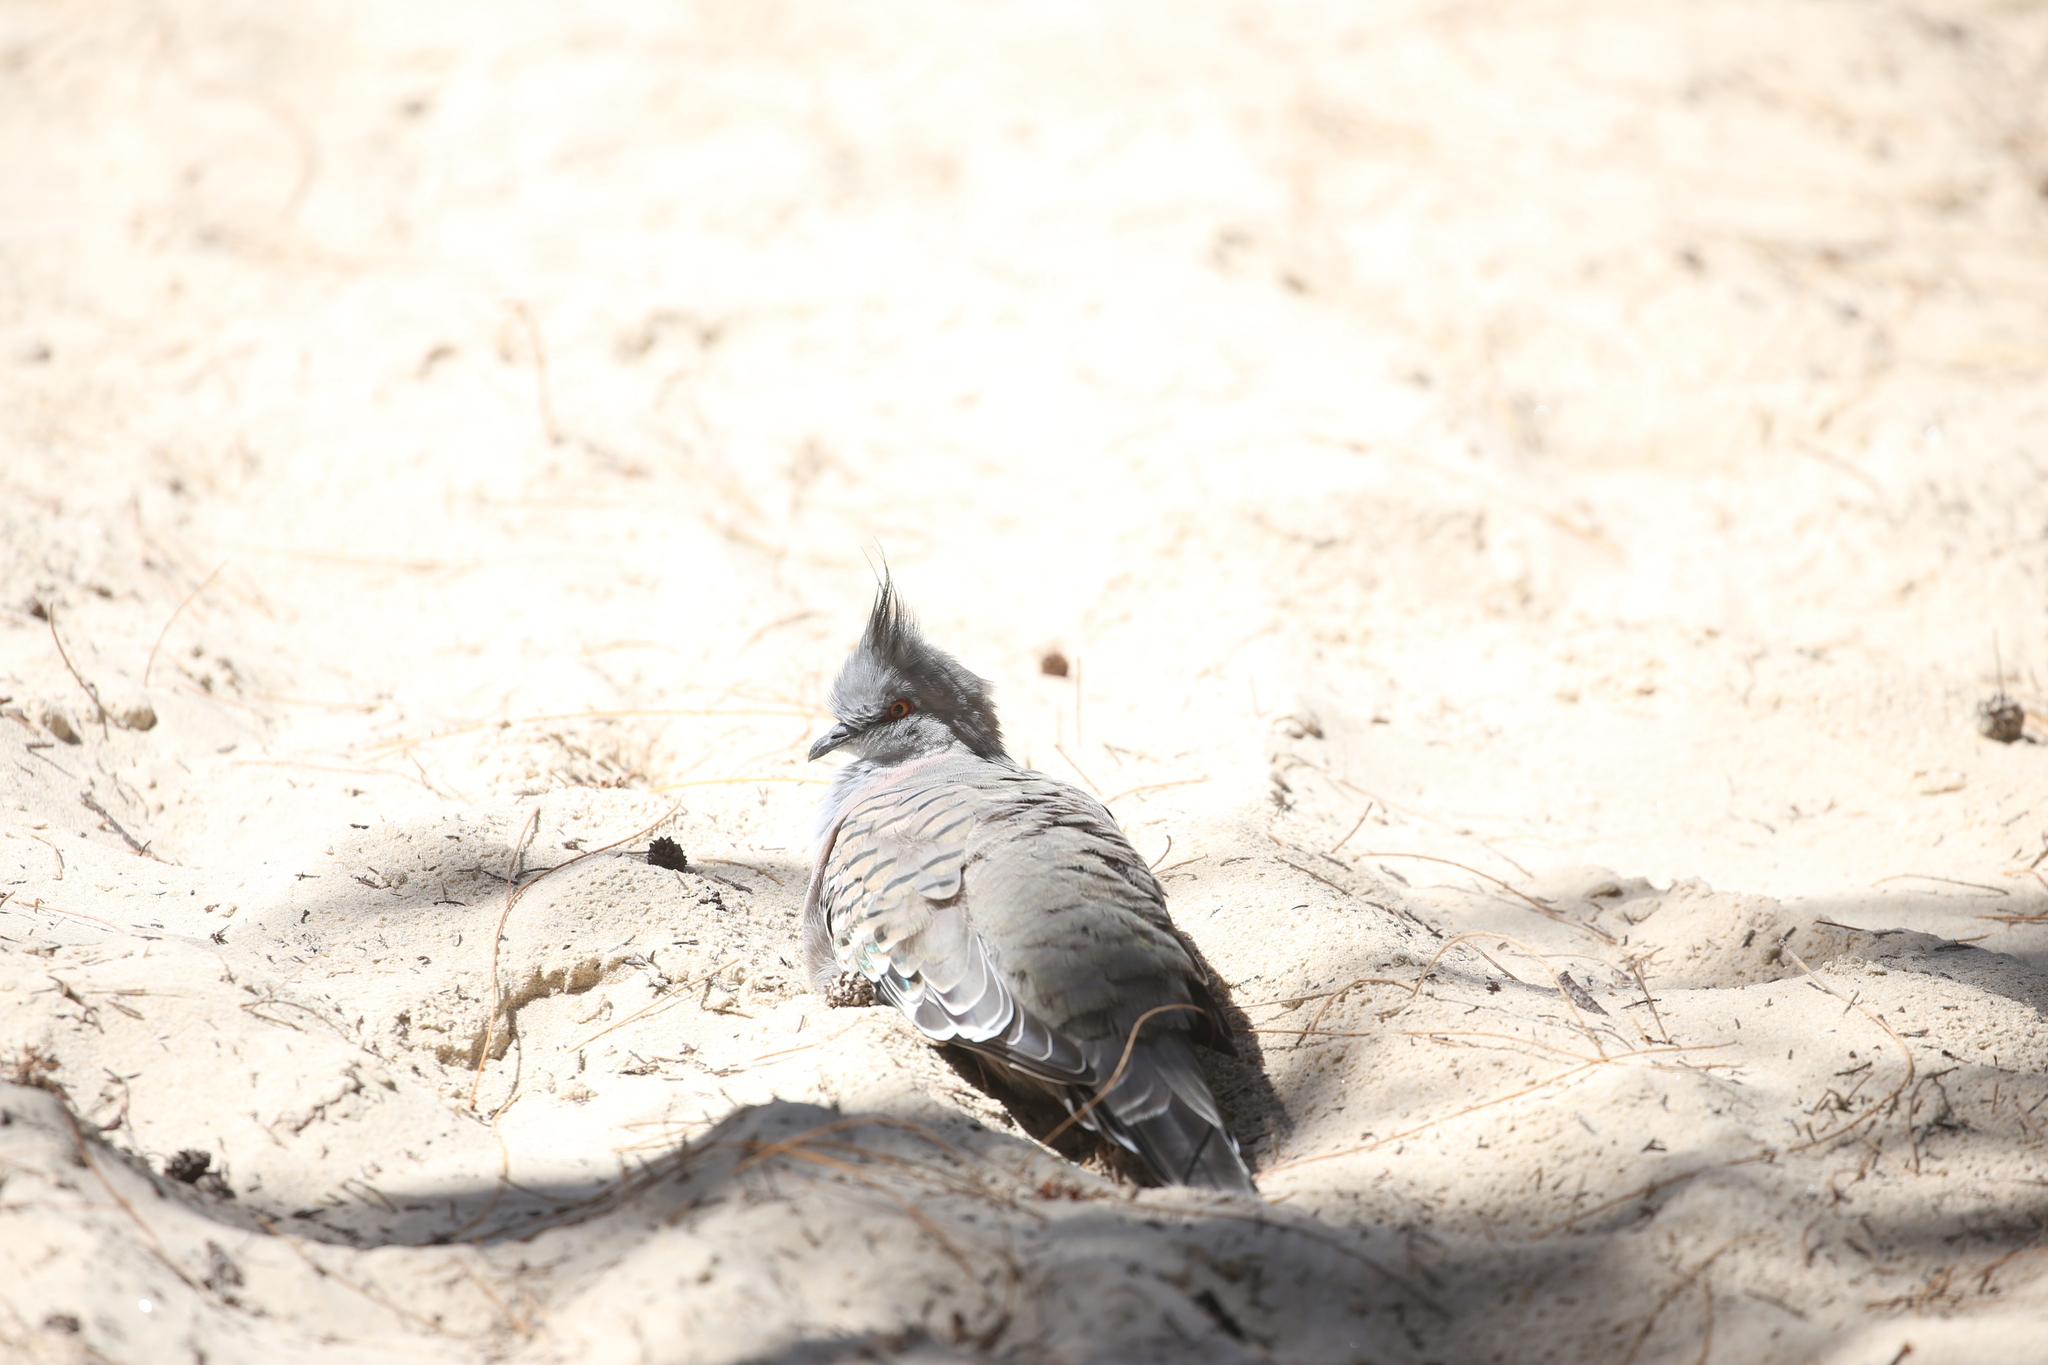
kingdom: Animalia
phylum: Chordata
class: Aves
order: Columbiformes
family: Columbidae
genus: Ocyphaps
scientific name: Ocyphaps lophotes
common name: Crested pigeon
